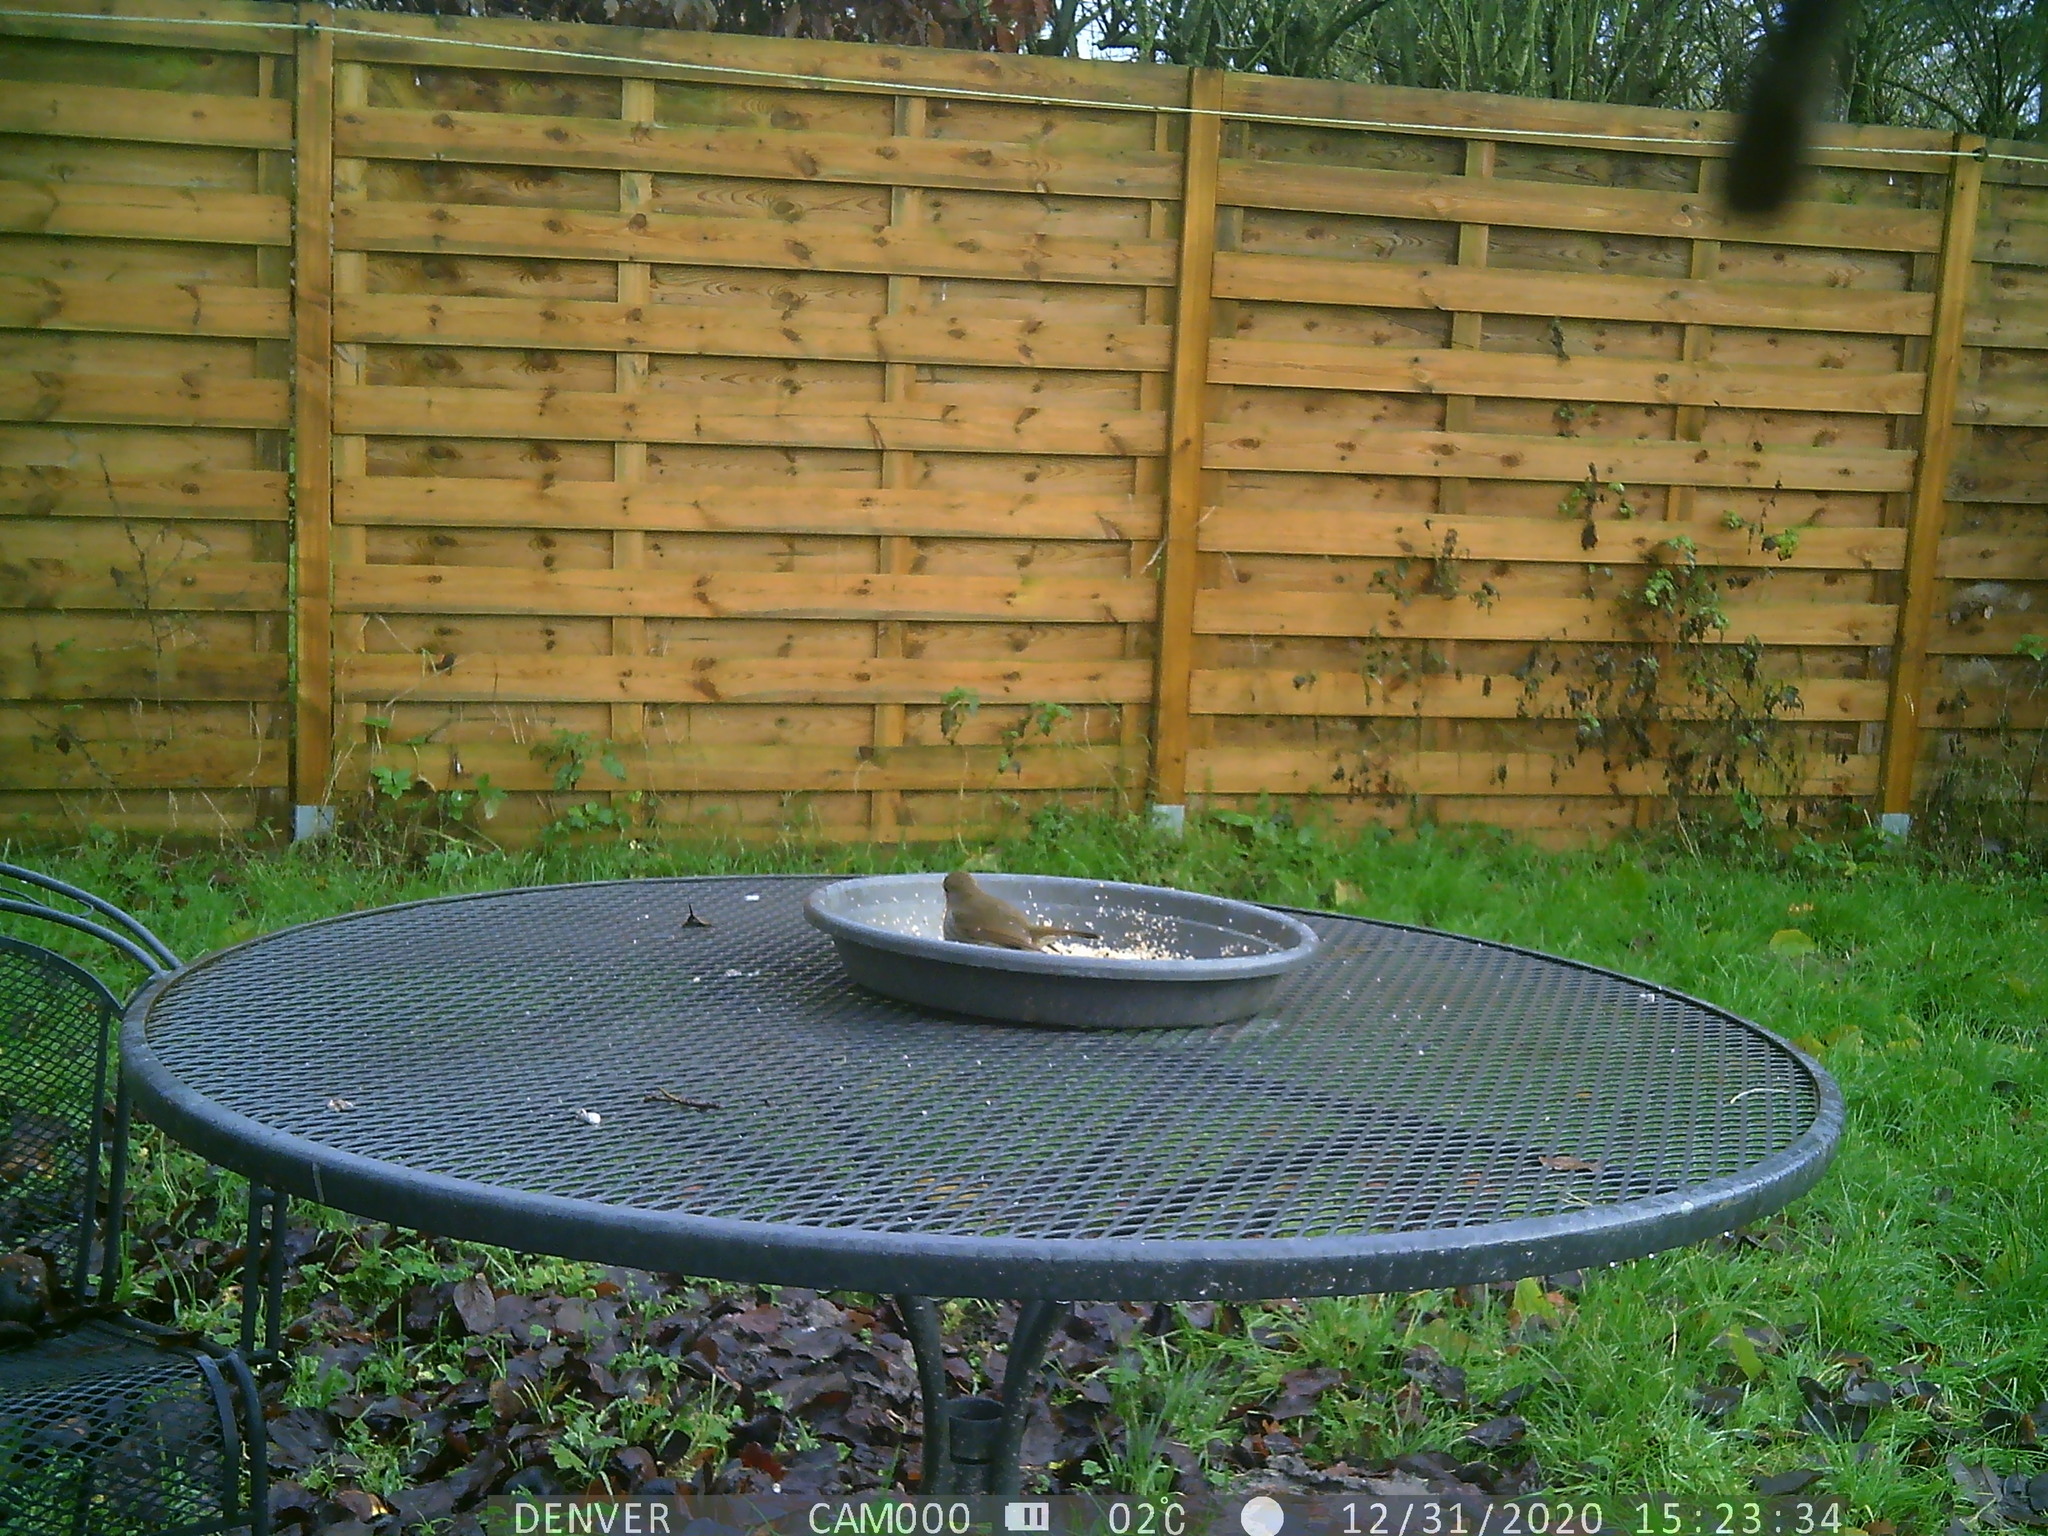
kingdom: Animalia
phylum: Chordata
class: Aves
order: Passeriformes
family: Muscicapidae
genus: Erithacus
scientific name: Erithacus rubecula
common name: European robin
